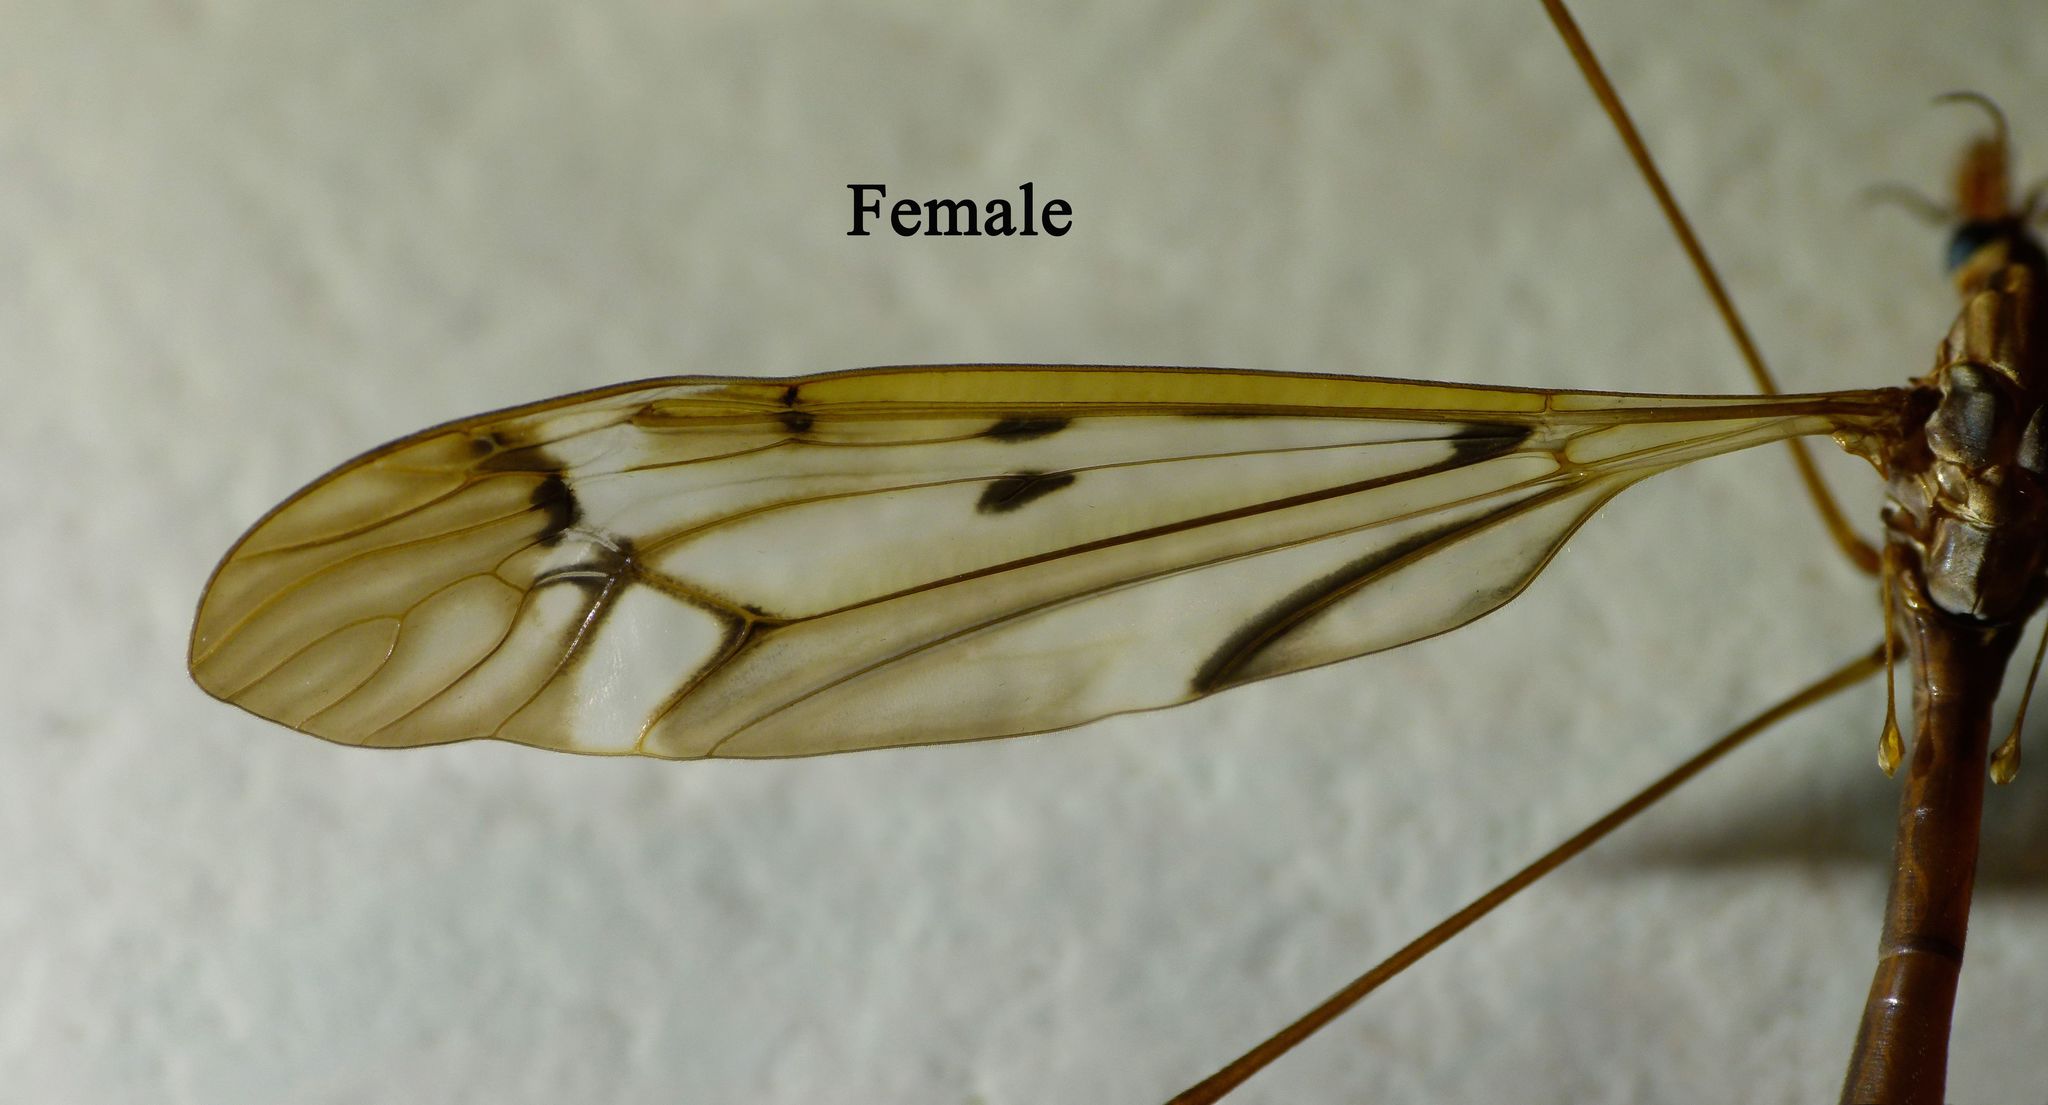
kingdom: Animalia
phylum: Arthropoda
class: Insecta
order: Diptera
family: Tipulidae
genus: Zelandotipula
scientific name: Zelandotipula fulva
